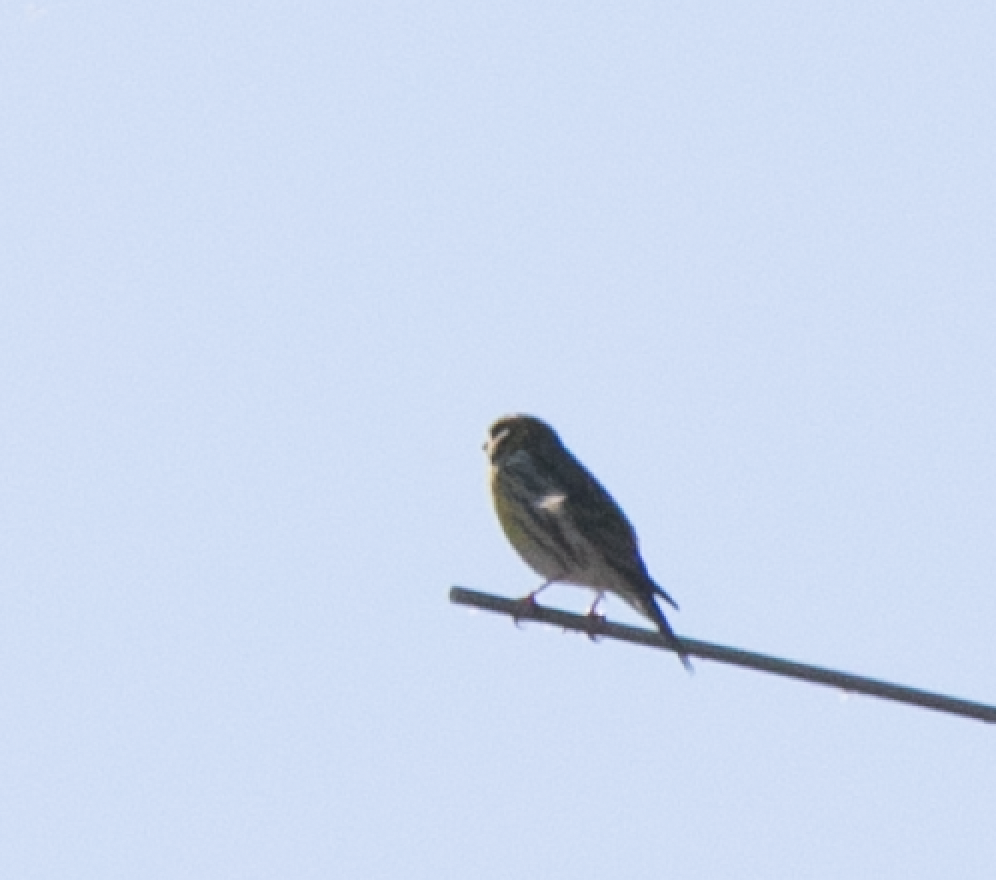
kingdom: Animalia
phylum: Chordata
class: Aves
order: Passeriformes
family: Fringillidae
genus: Serinus
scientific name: Serinus serinus
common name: European serin
